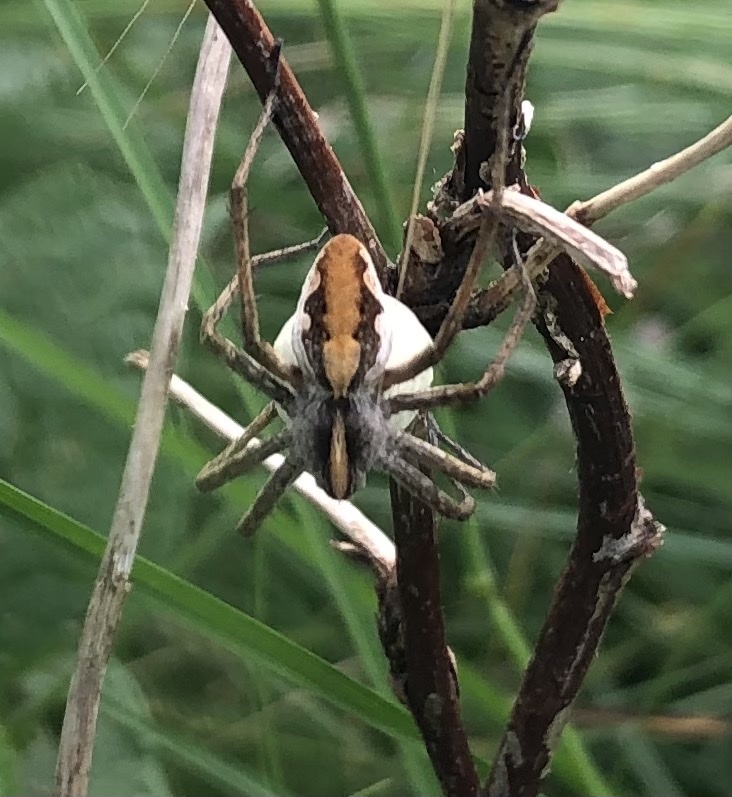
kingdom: Animalia
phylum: Arthropoda
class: Arachnida
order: Araneae
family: Pisauridae
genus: Pisaura
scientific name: Pisaura mirabilis
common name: Tent spider
